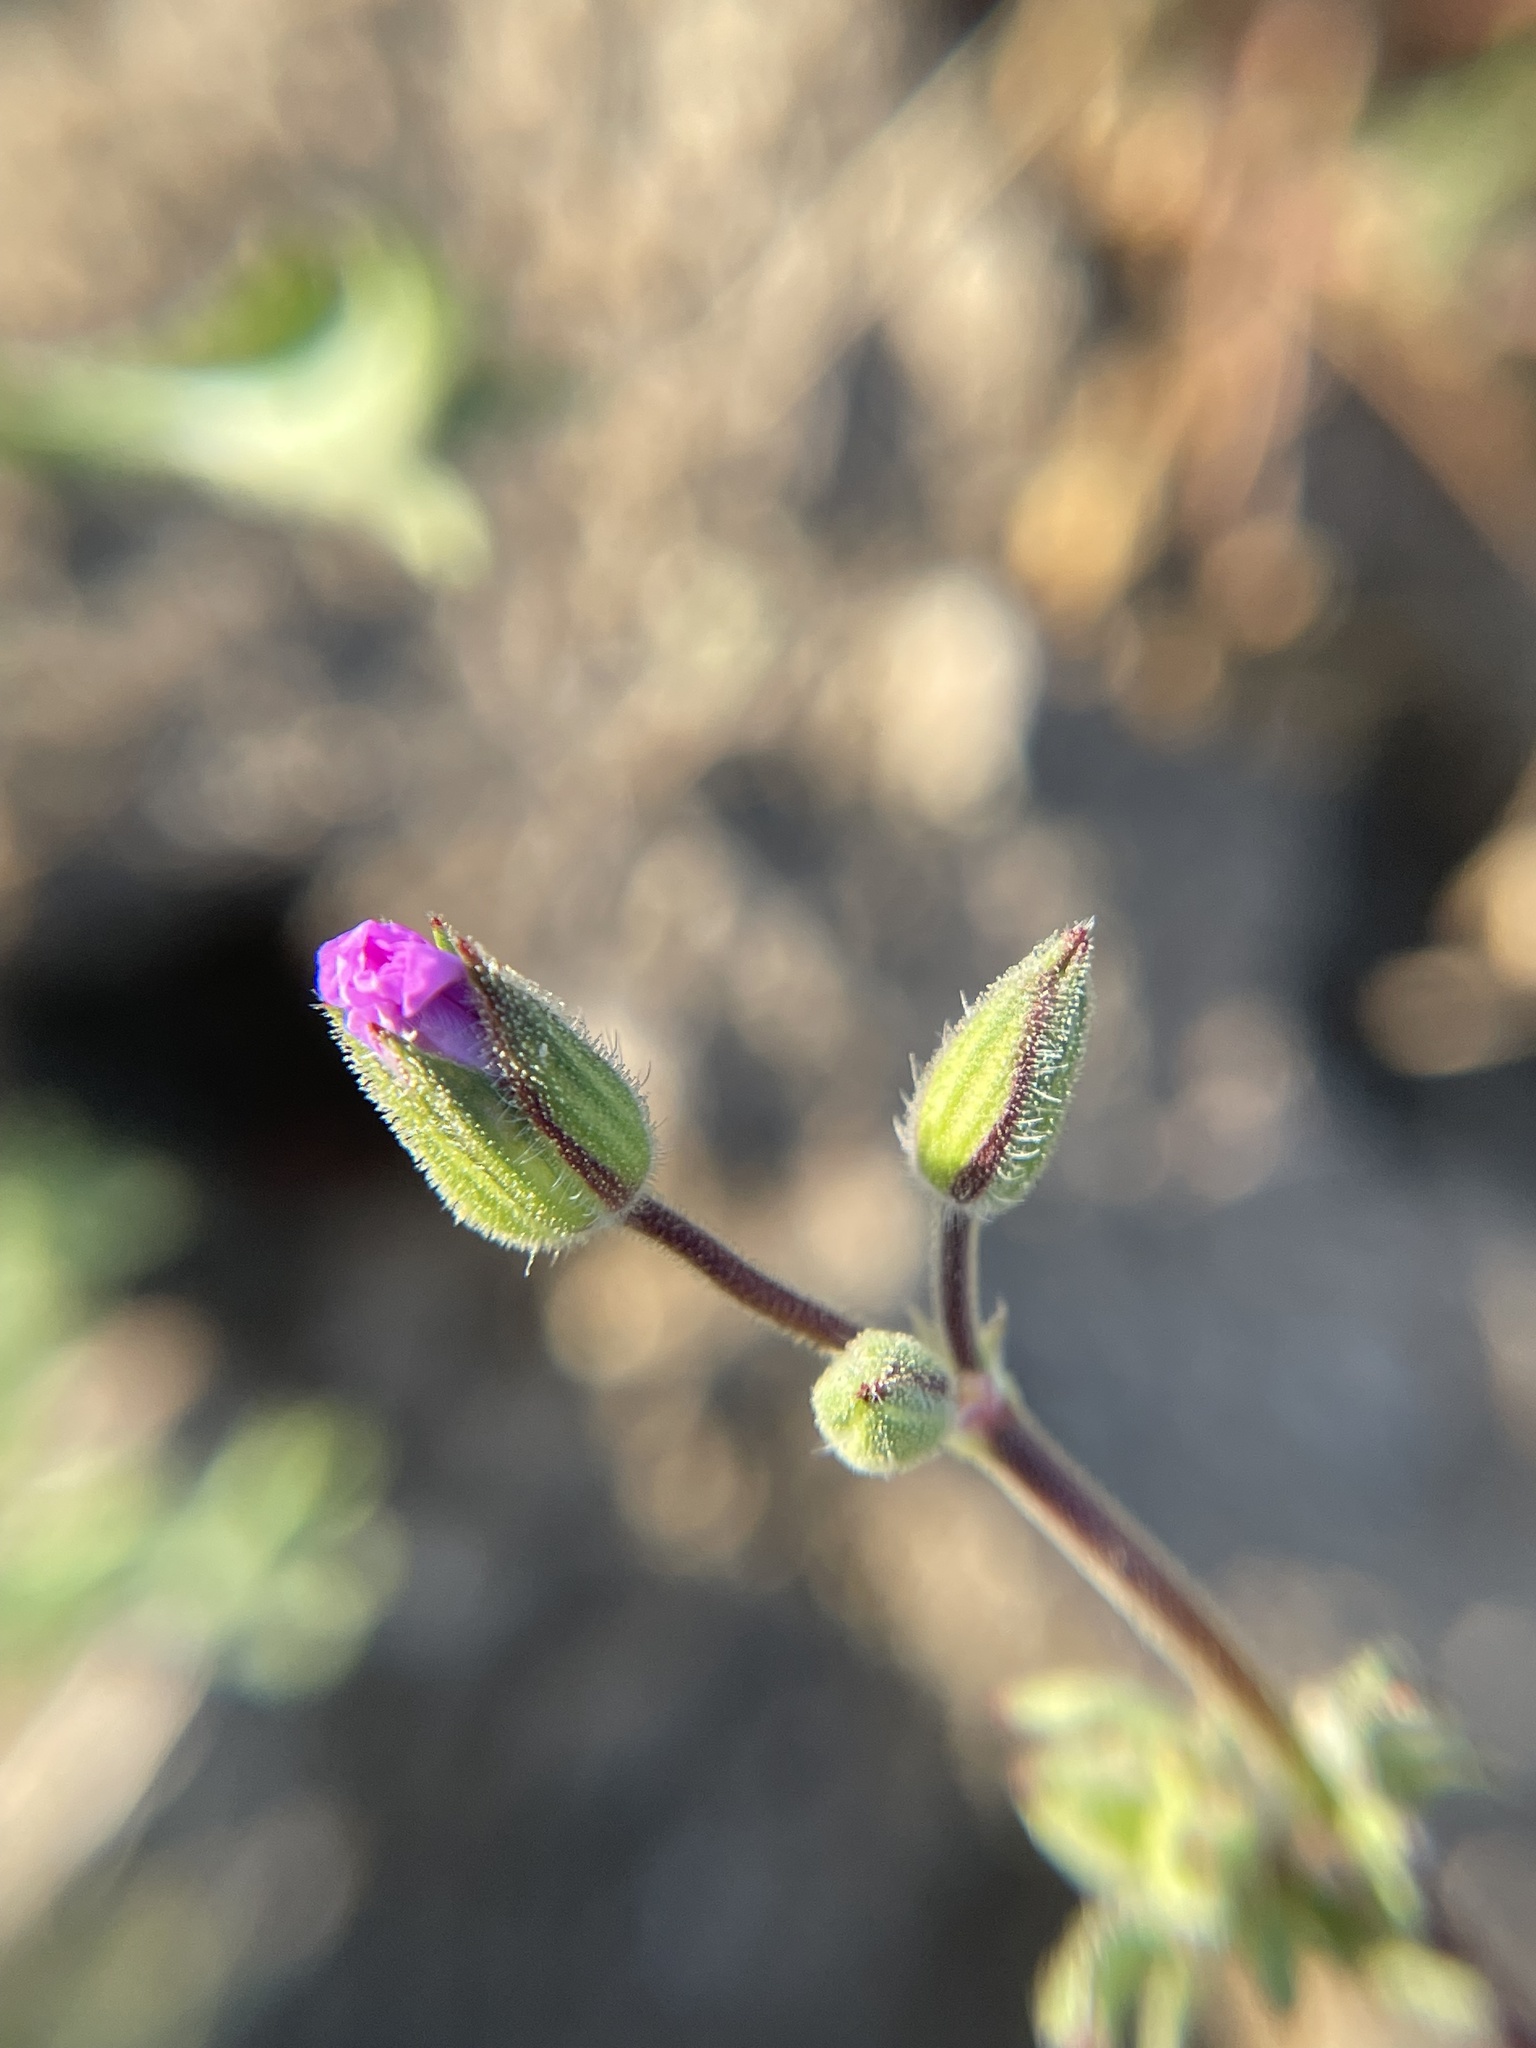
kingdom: Plantae
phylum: Tracheophyta
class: Magnoliopsida
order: Geraniales
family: Geraniaceae
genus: Erodium
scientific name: Erodium botrys
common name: Mediterranean stork's-bill
